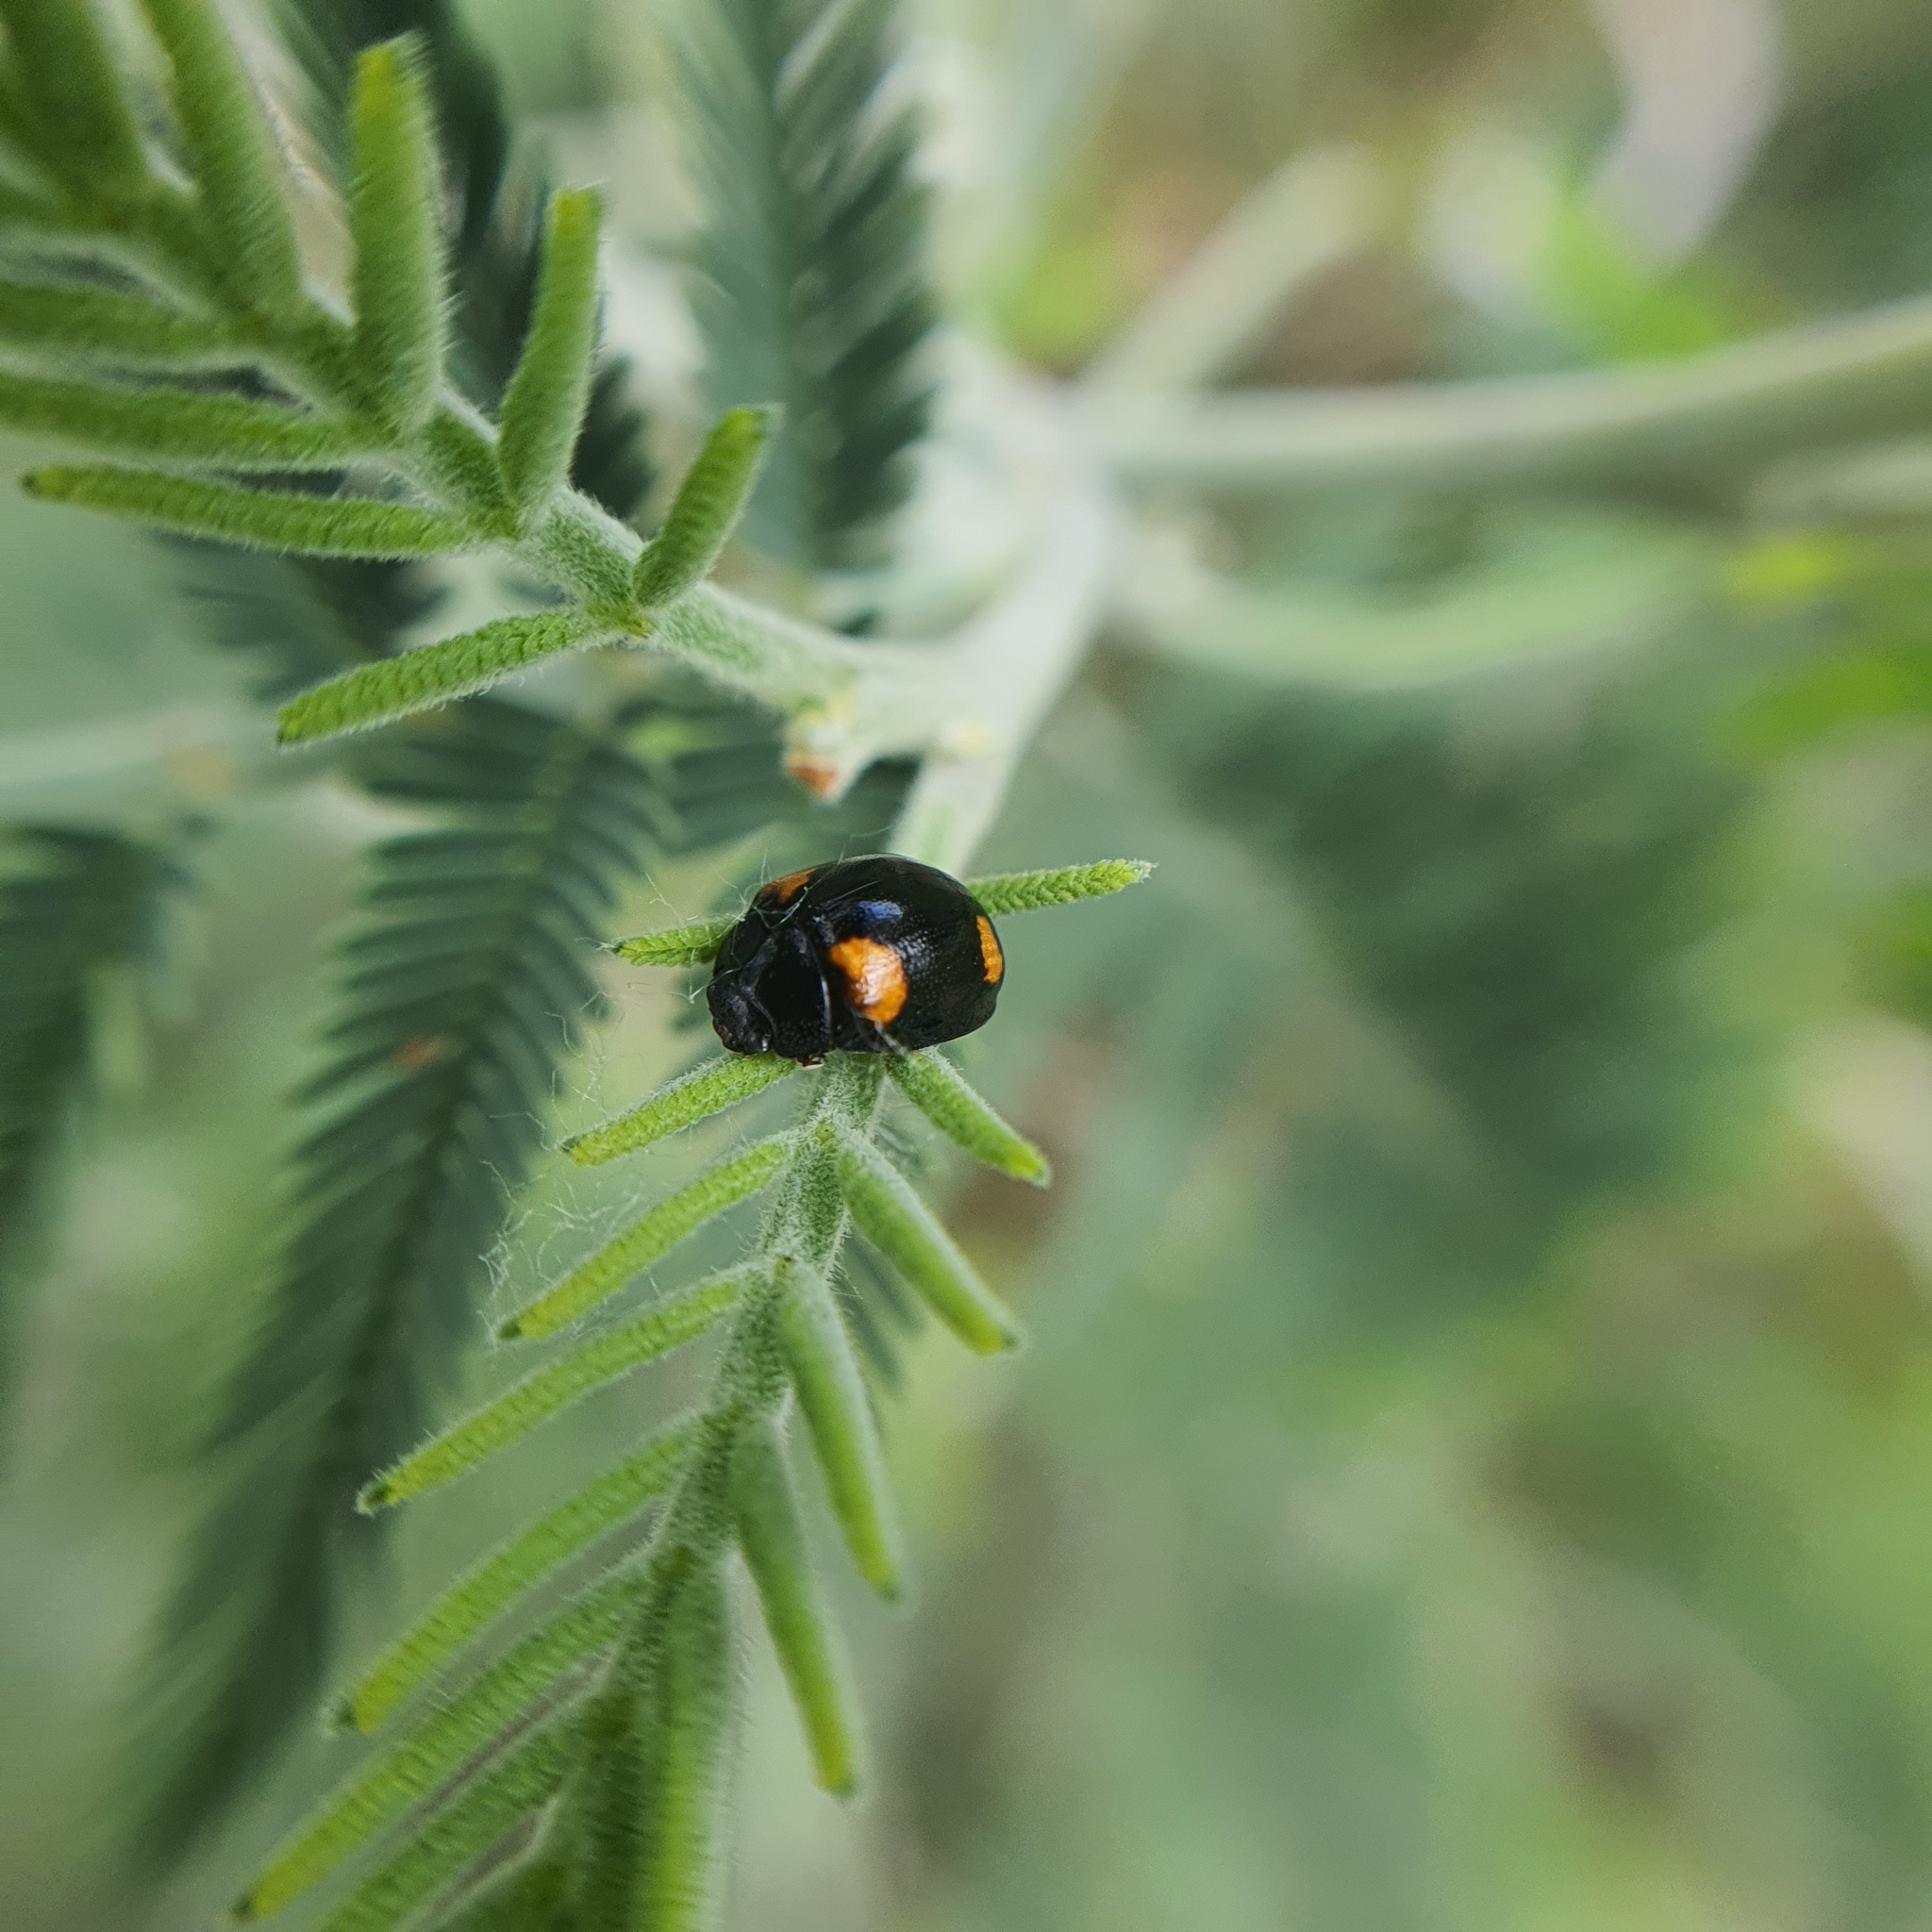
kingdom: Animalia
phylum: Arthropoda
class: Insecta
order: Coleoptera
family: Chrysomelidae
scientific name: Chrysomelidae
